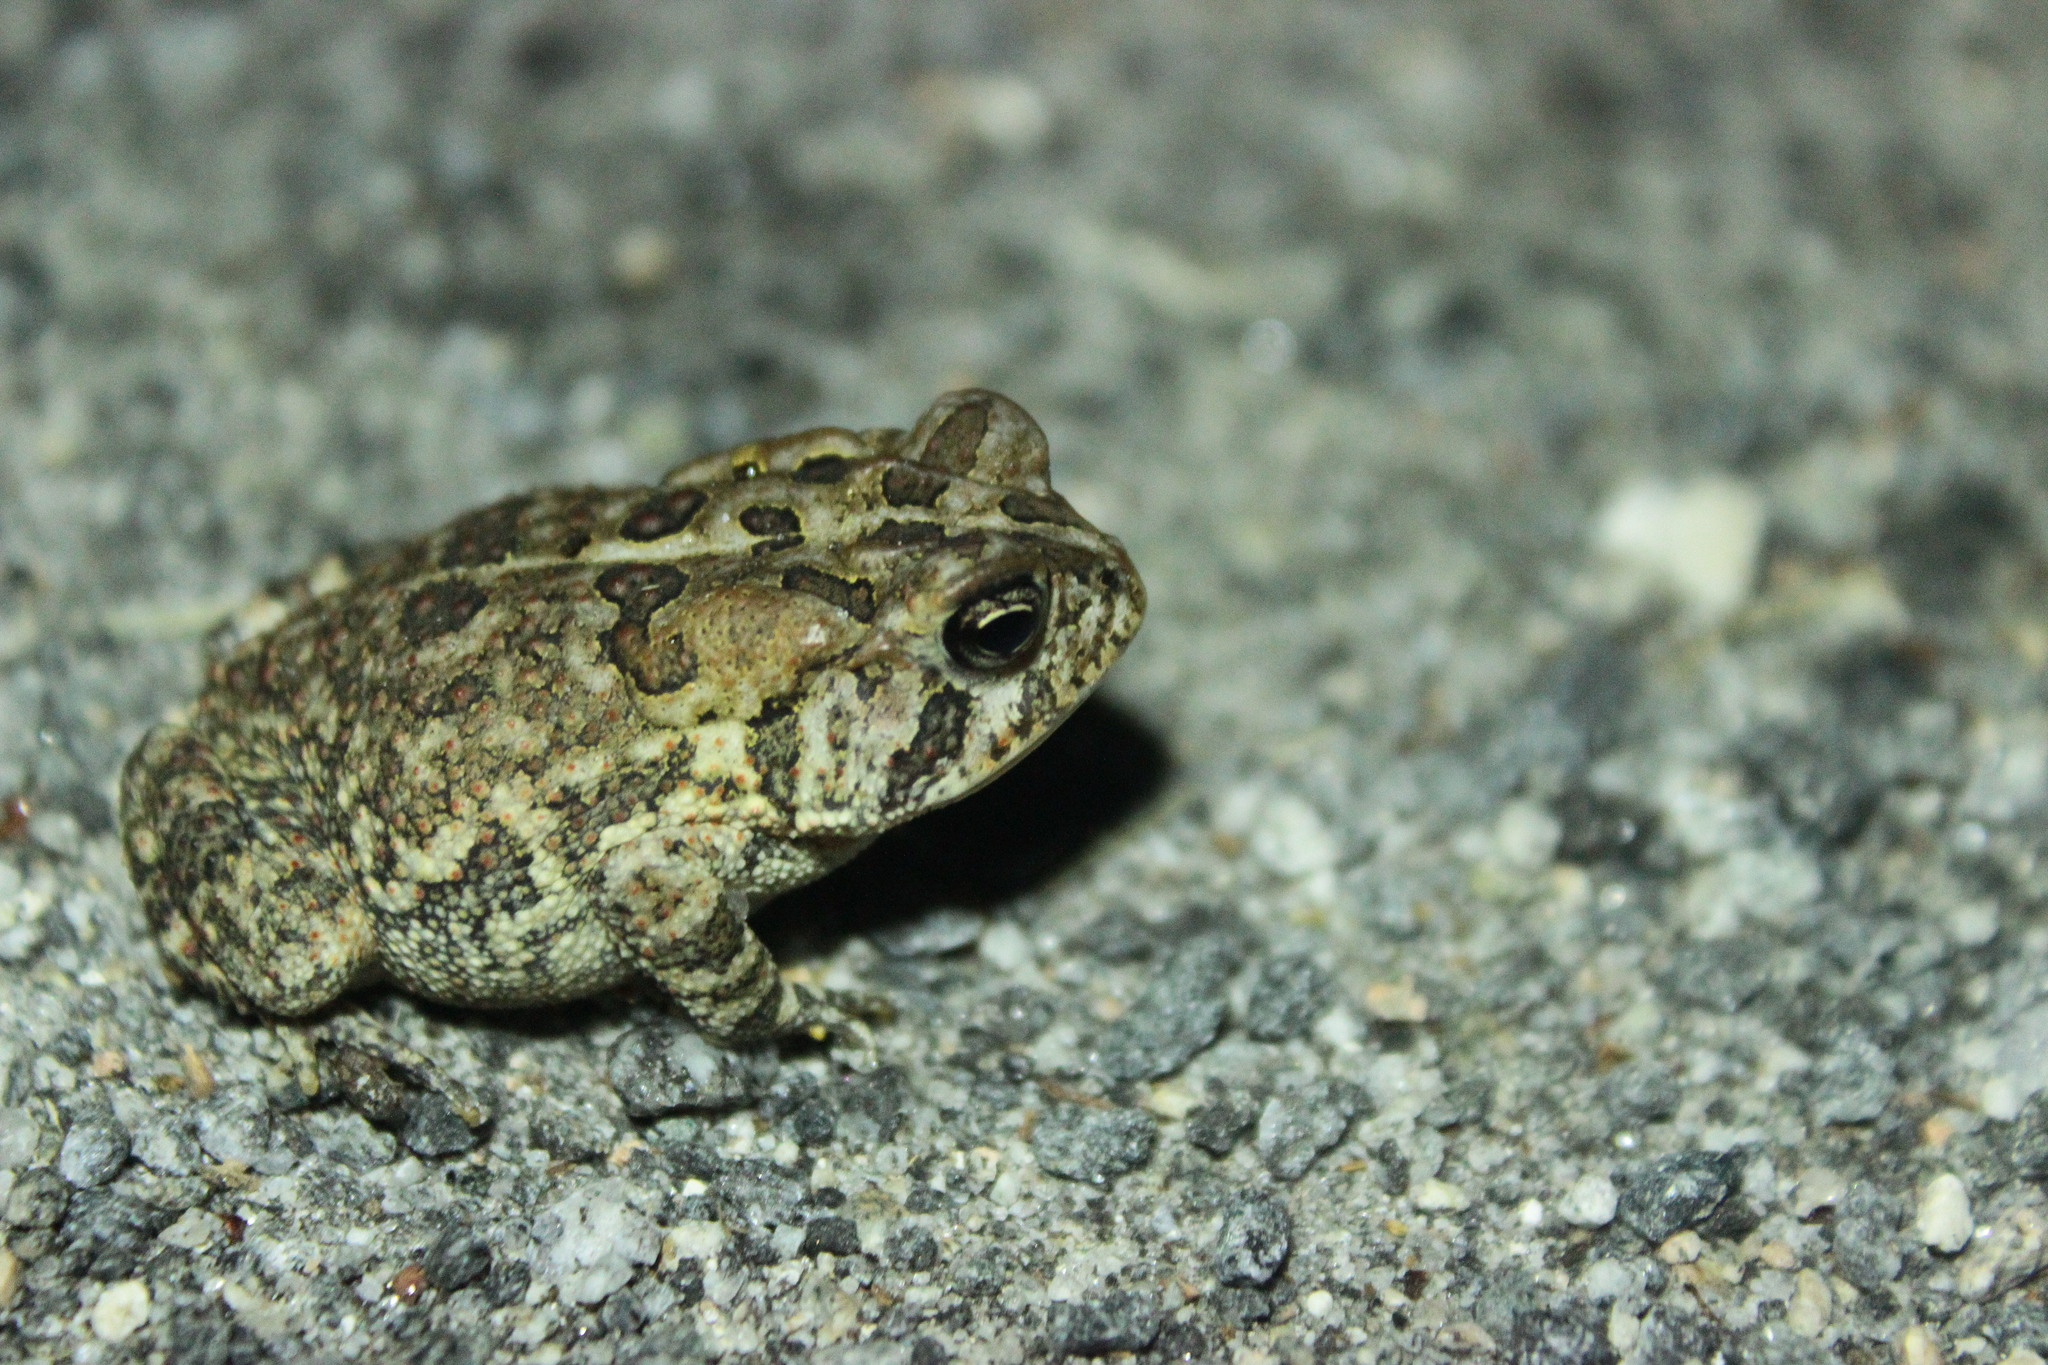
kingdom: Animalia
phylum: Chordata
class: Amphibia
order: Anura
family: Bufonidae
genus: Anaxyrus
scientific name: Anaxyrus terrestris
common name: Southern toad
